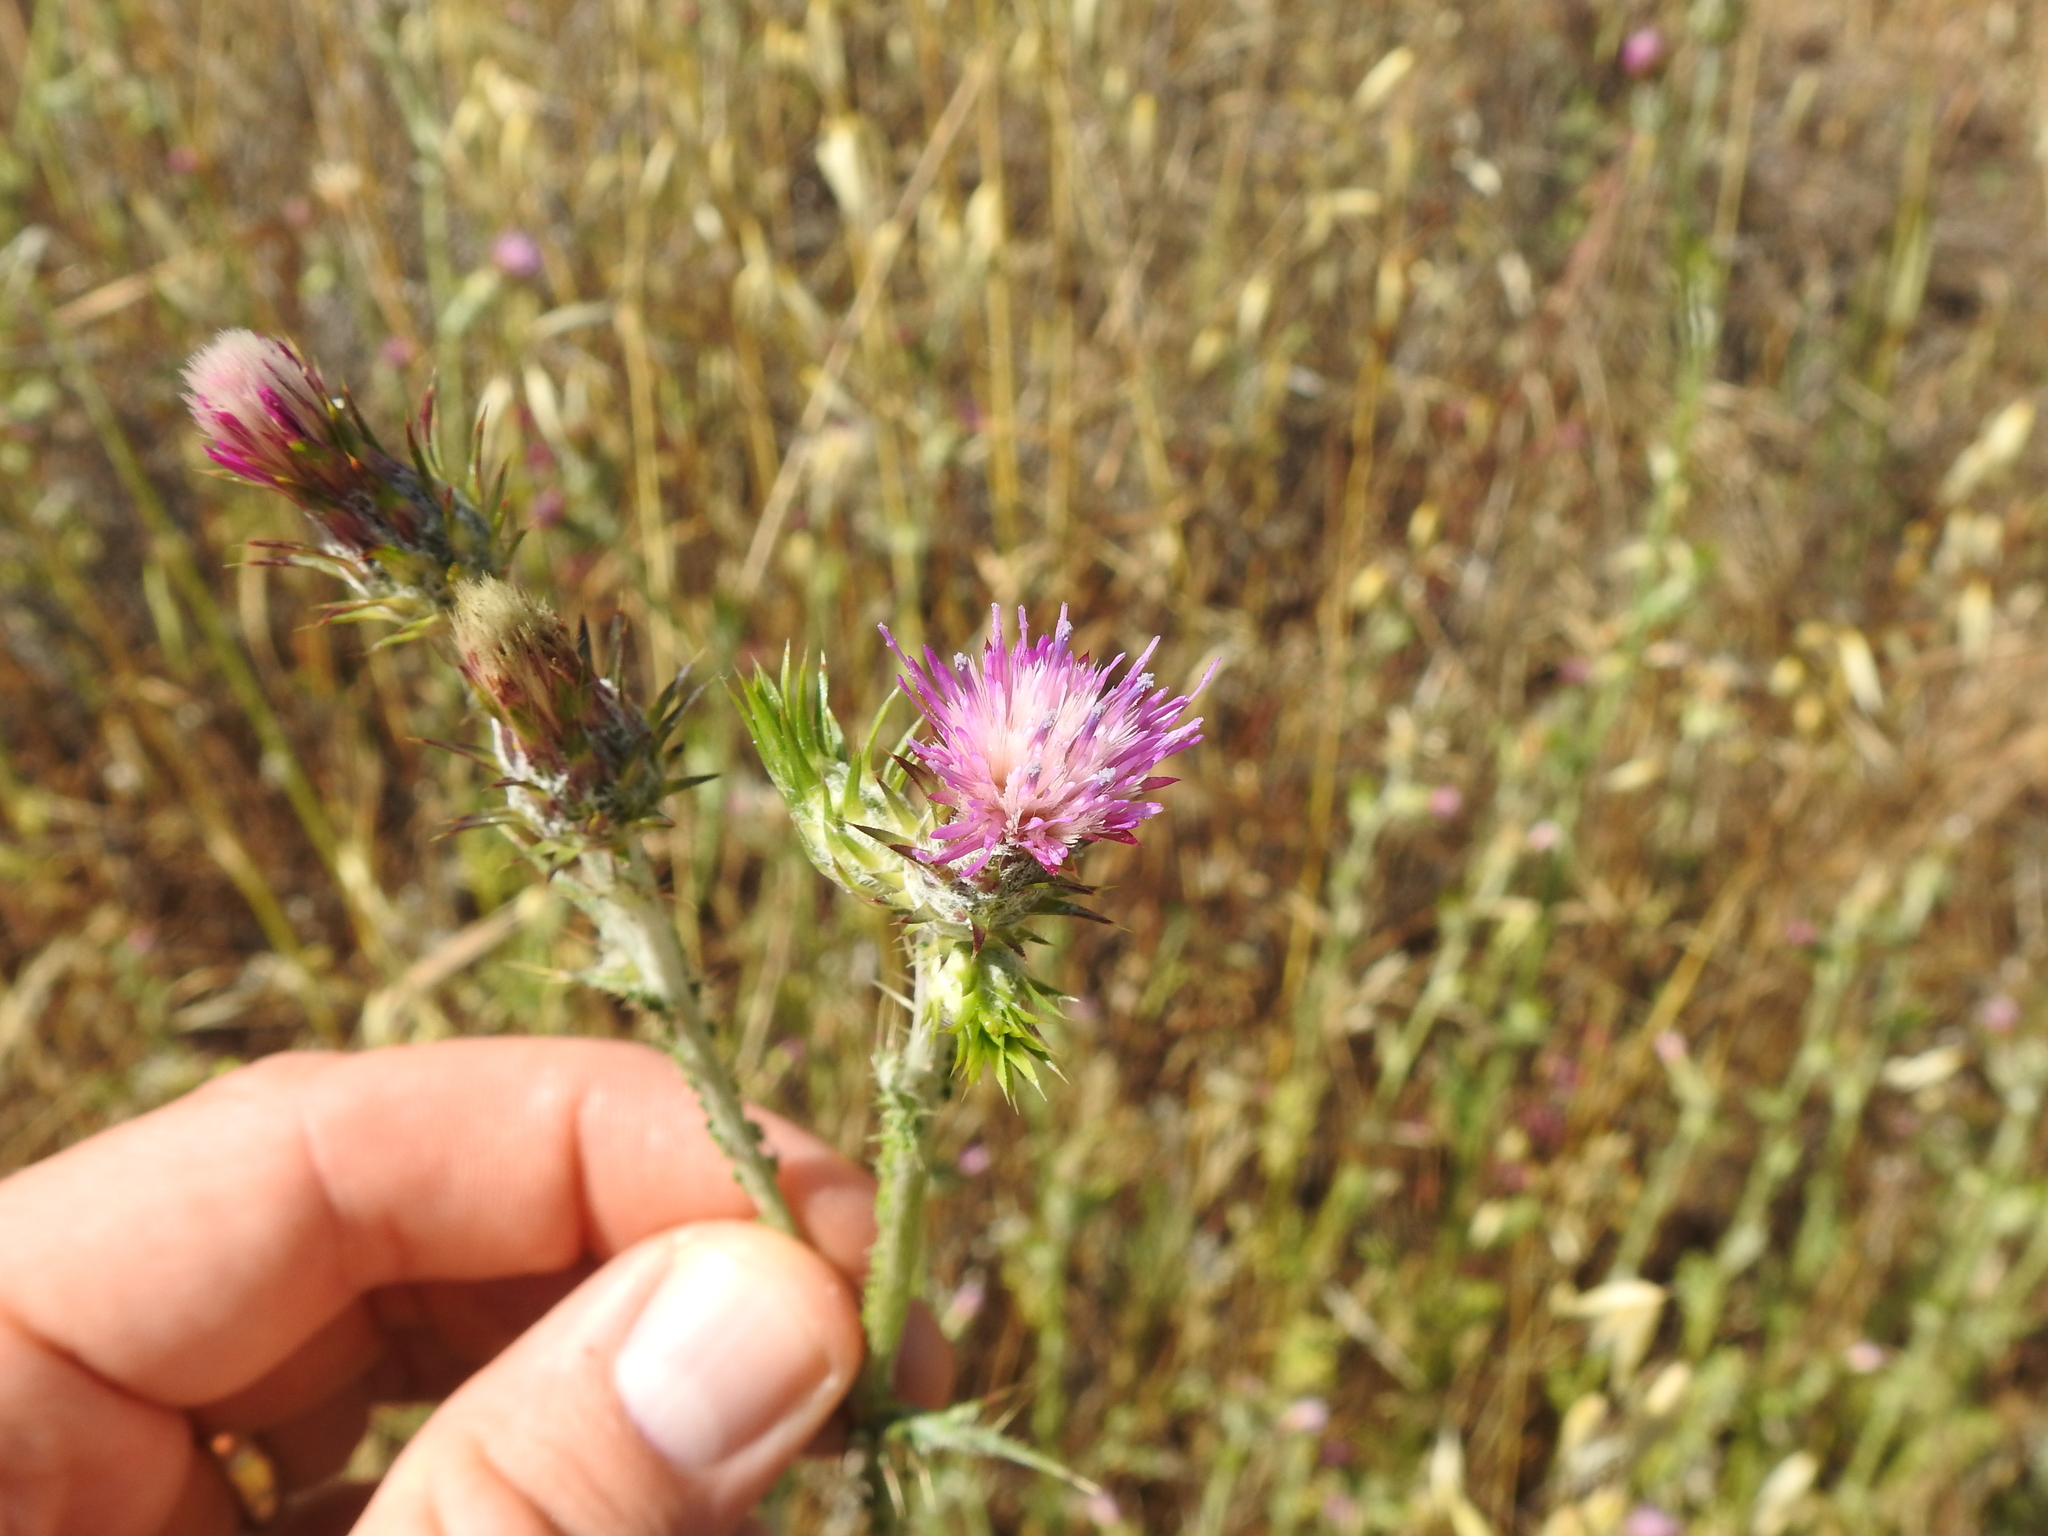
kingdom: Plantae
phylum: Tracheophyta
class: Magnoliopsida
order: Asterales
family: Asteraceae
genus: Carduus
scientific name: Carduus pycnocephalus
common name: Plymouth thistle
